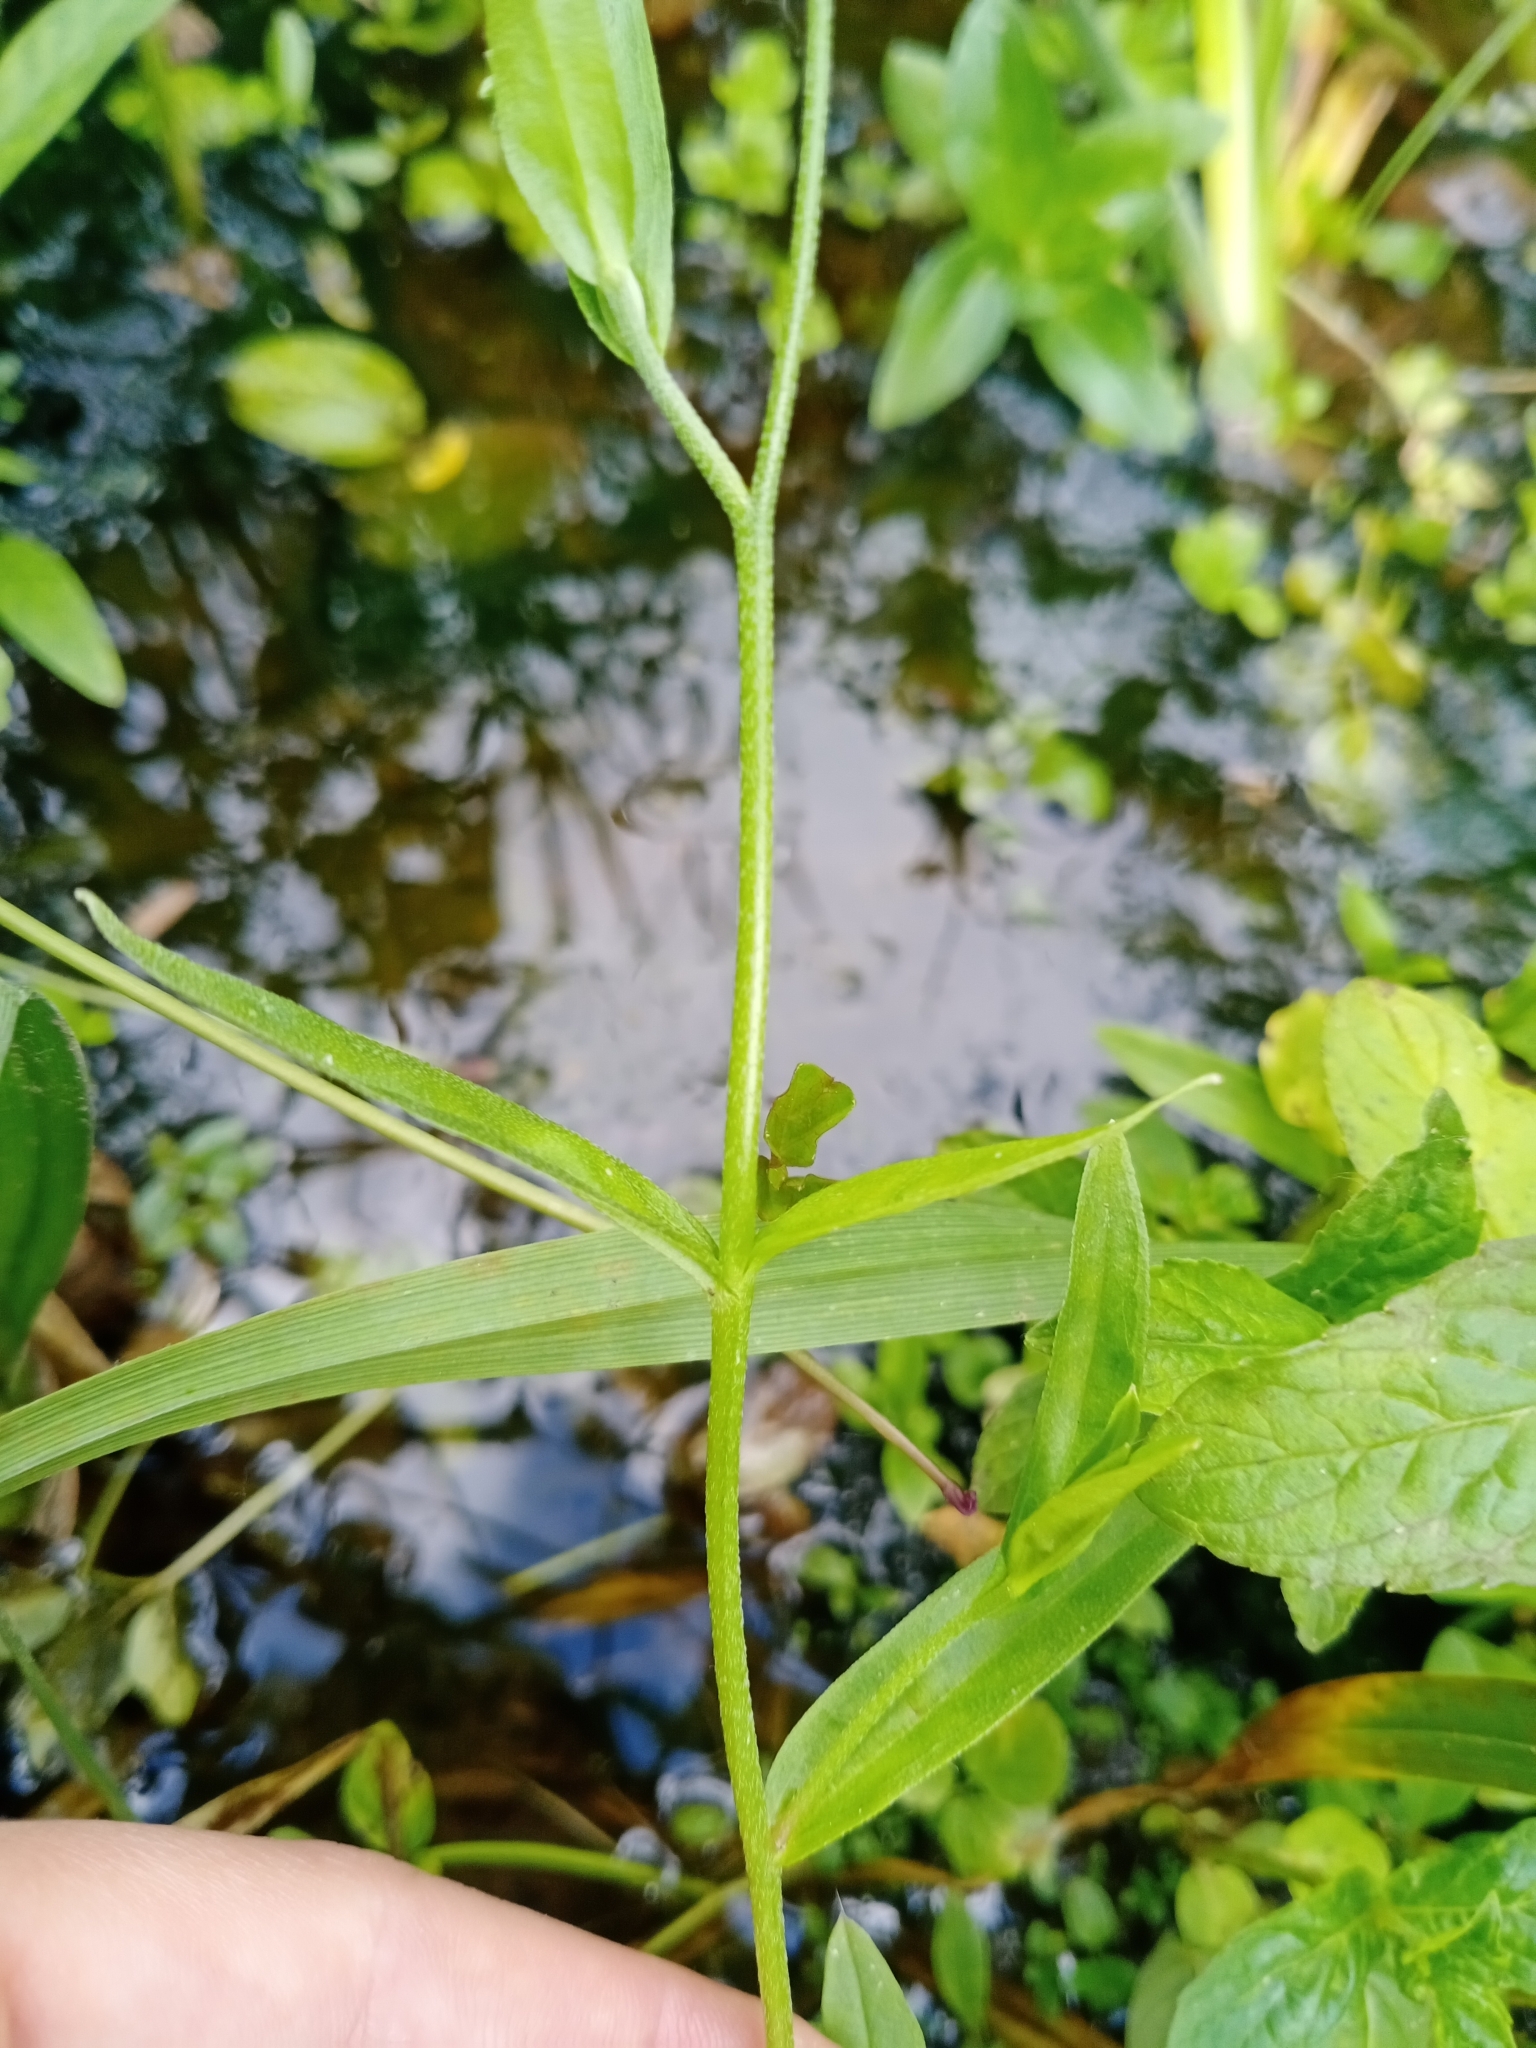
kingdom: Plantae
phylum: Tracheophyta
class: Magnoliopsida
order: Boraginales
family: Boraginaceae
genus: Myosotis
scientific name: Myosotis scorpioides
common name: Water forget-me-not
